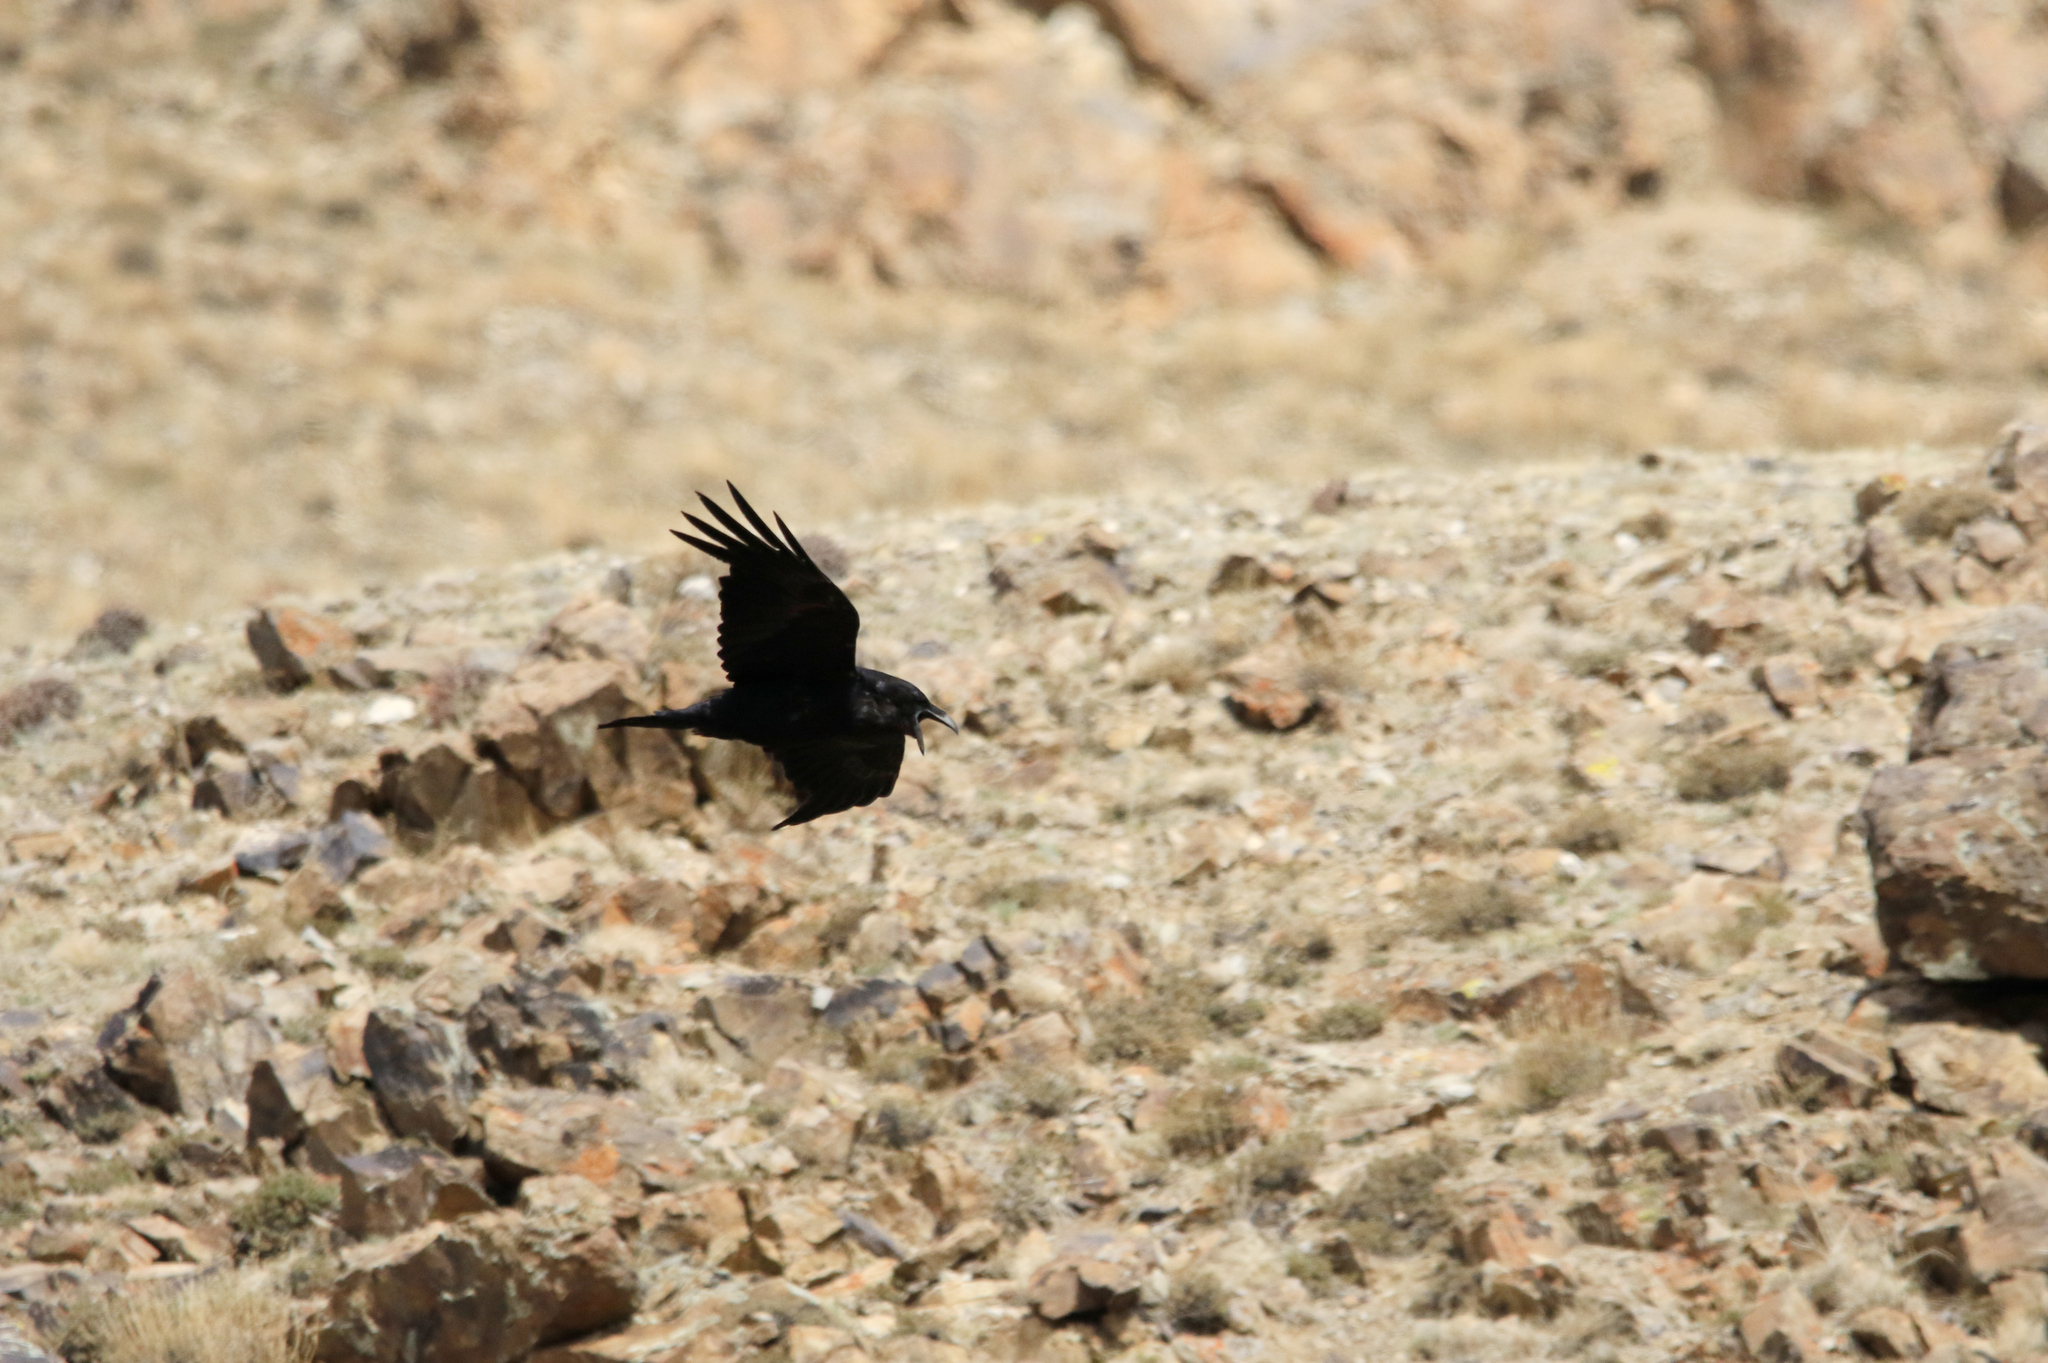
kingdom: Animalia
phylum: Chordata
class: Aves
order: Passeriformes
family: Corvidae
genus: Corvus
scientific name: Corvus corax
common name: Common raven
